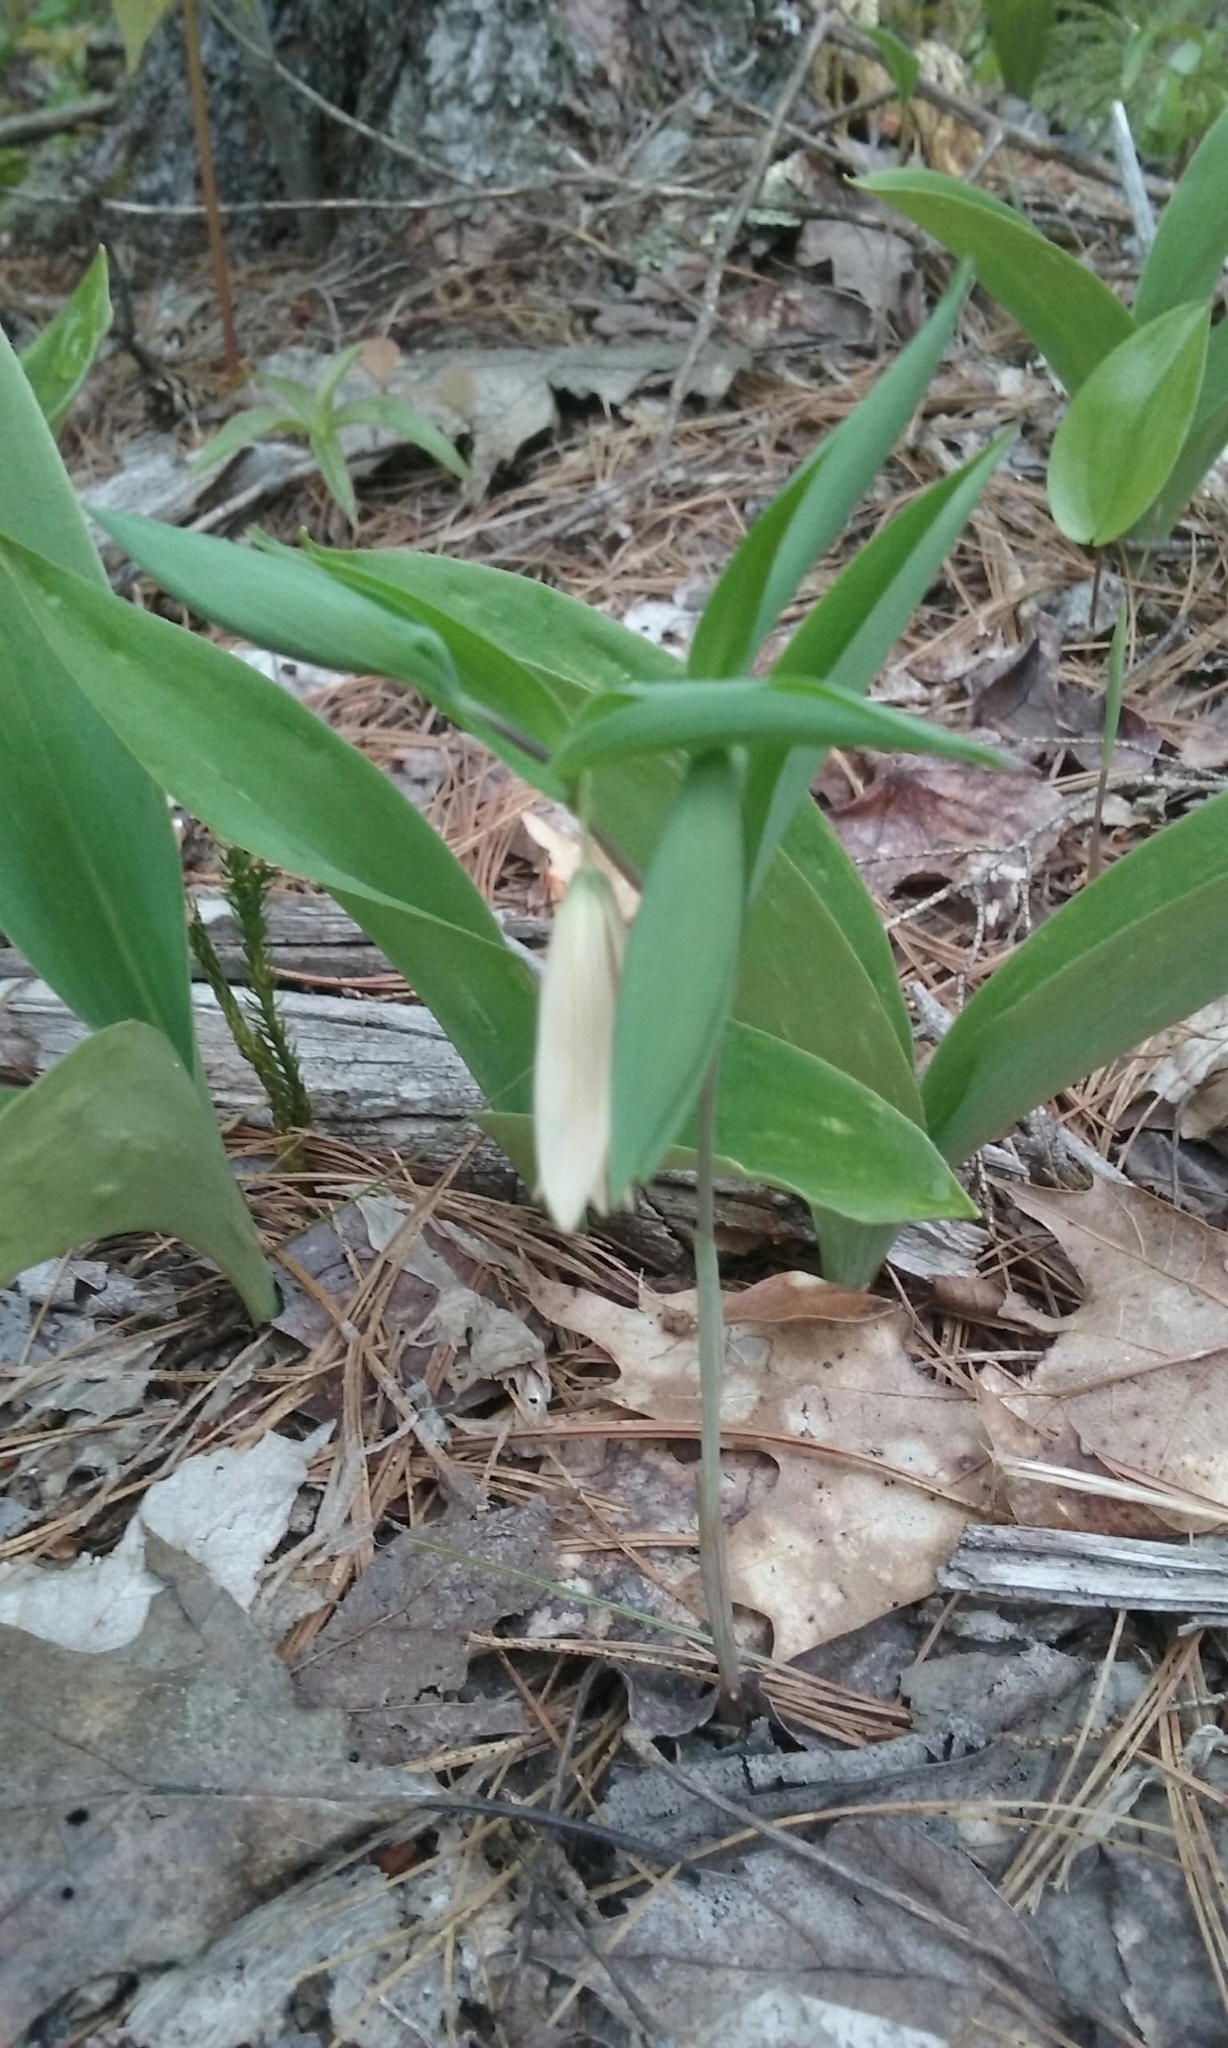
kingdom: Plantae
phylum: Tracheophyta
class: Liliopsida
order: Liliales
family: Colchicaceae
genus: Uvularia
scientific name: Uvularia sessilifolia
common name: Straw-lily
